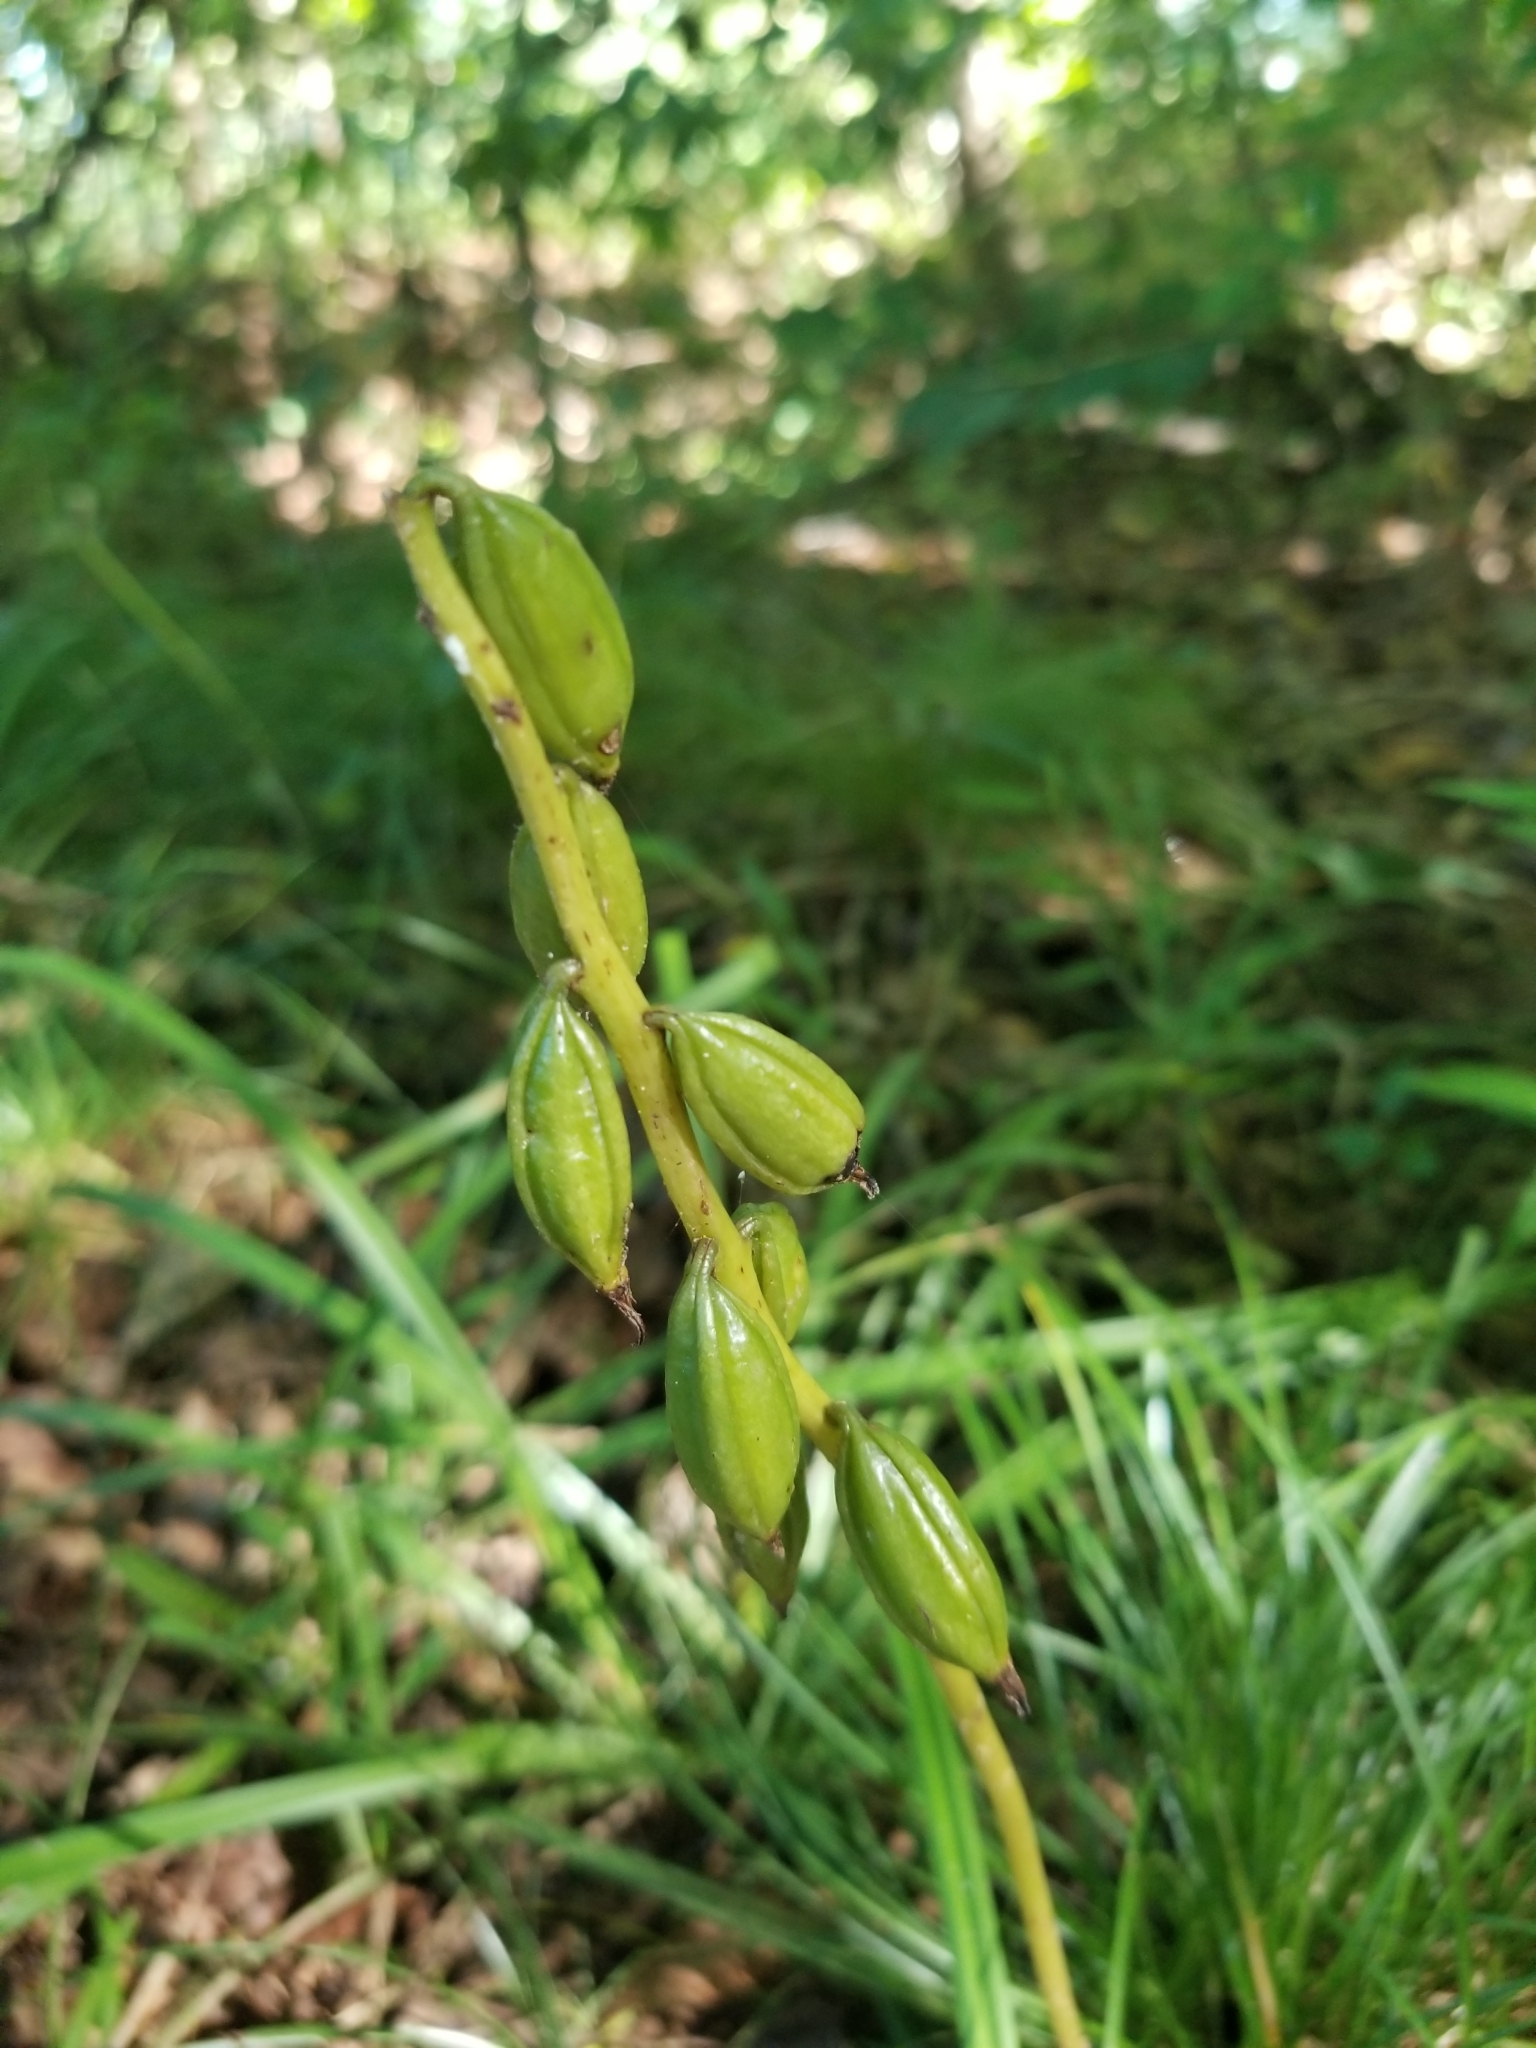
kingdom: Plantae
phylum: Tracheophyta
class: Liliopsida
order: Asparagales
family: Orchidaceae
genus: Aplectrum
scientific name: Aplectrum hyemale
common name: Adam-and-eve
